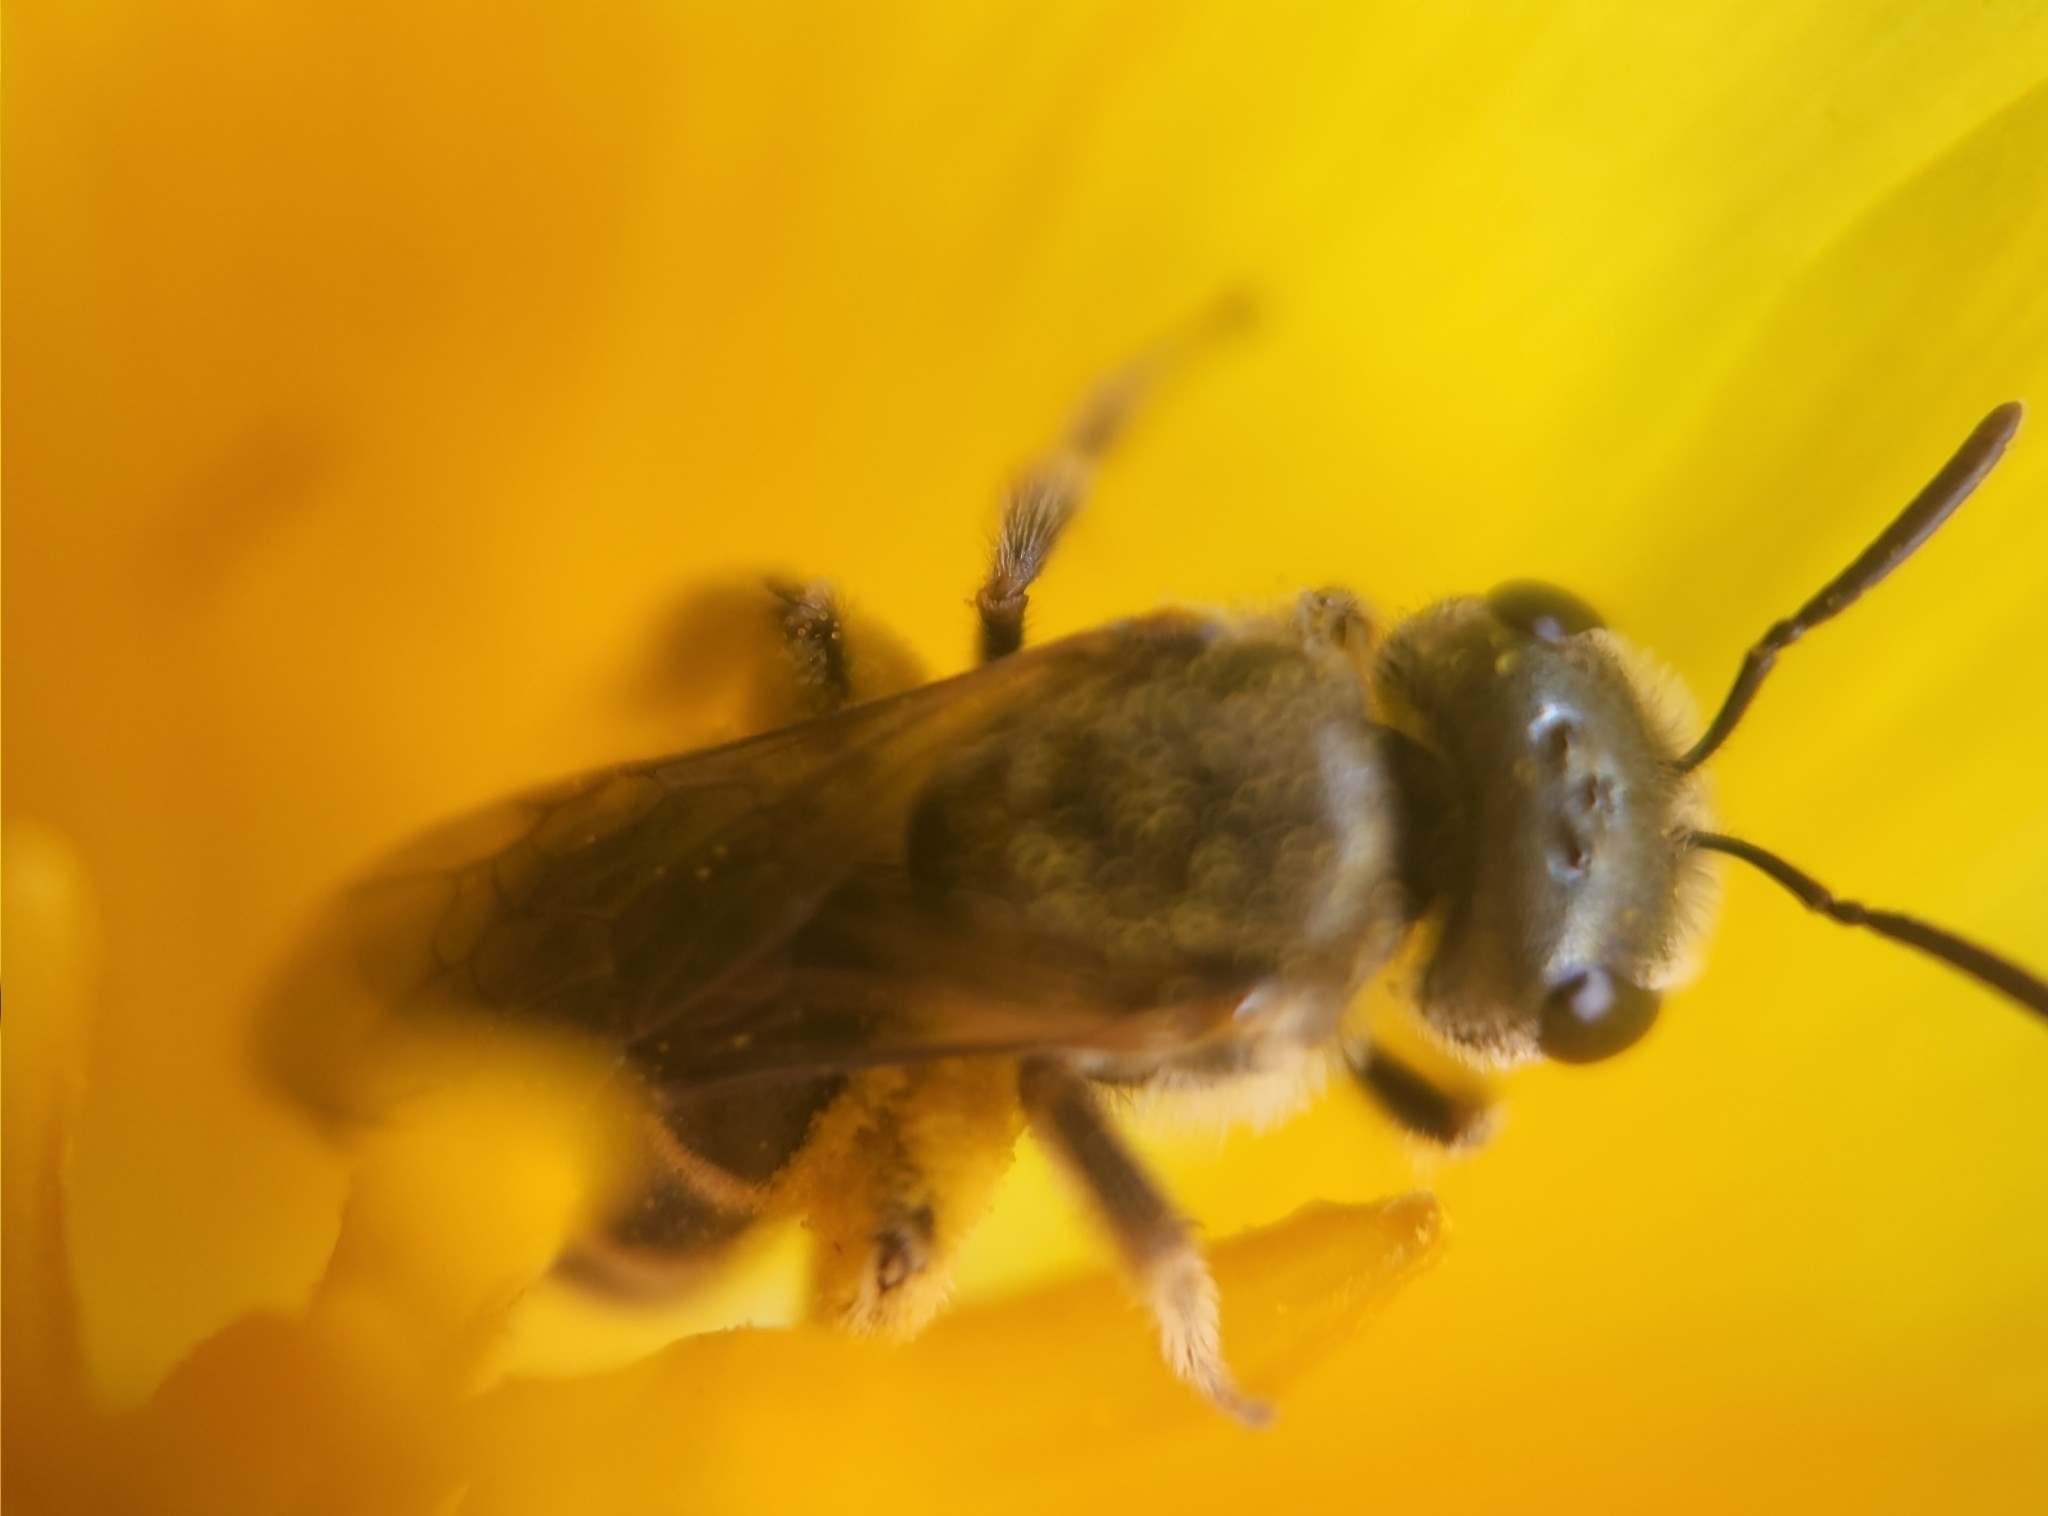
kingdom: Animalia
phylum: Arthropoda
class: Insecta
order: Hymenoptera
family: Halictidae
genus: Halictus
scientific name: Halictus ligatus
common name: Ligated furrow bee
